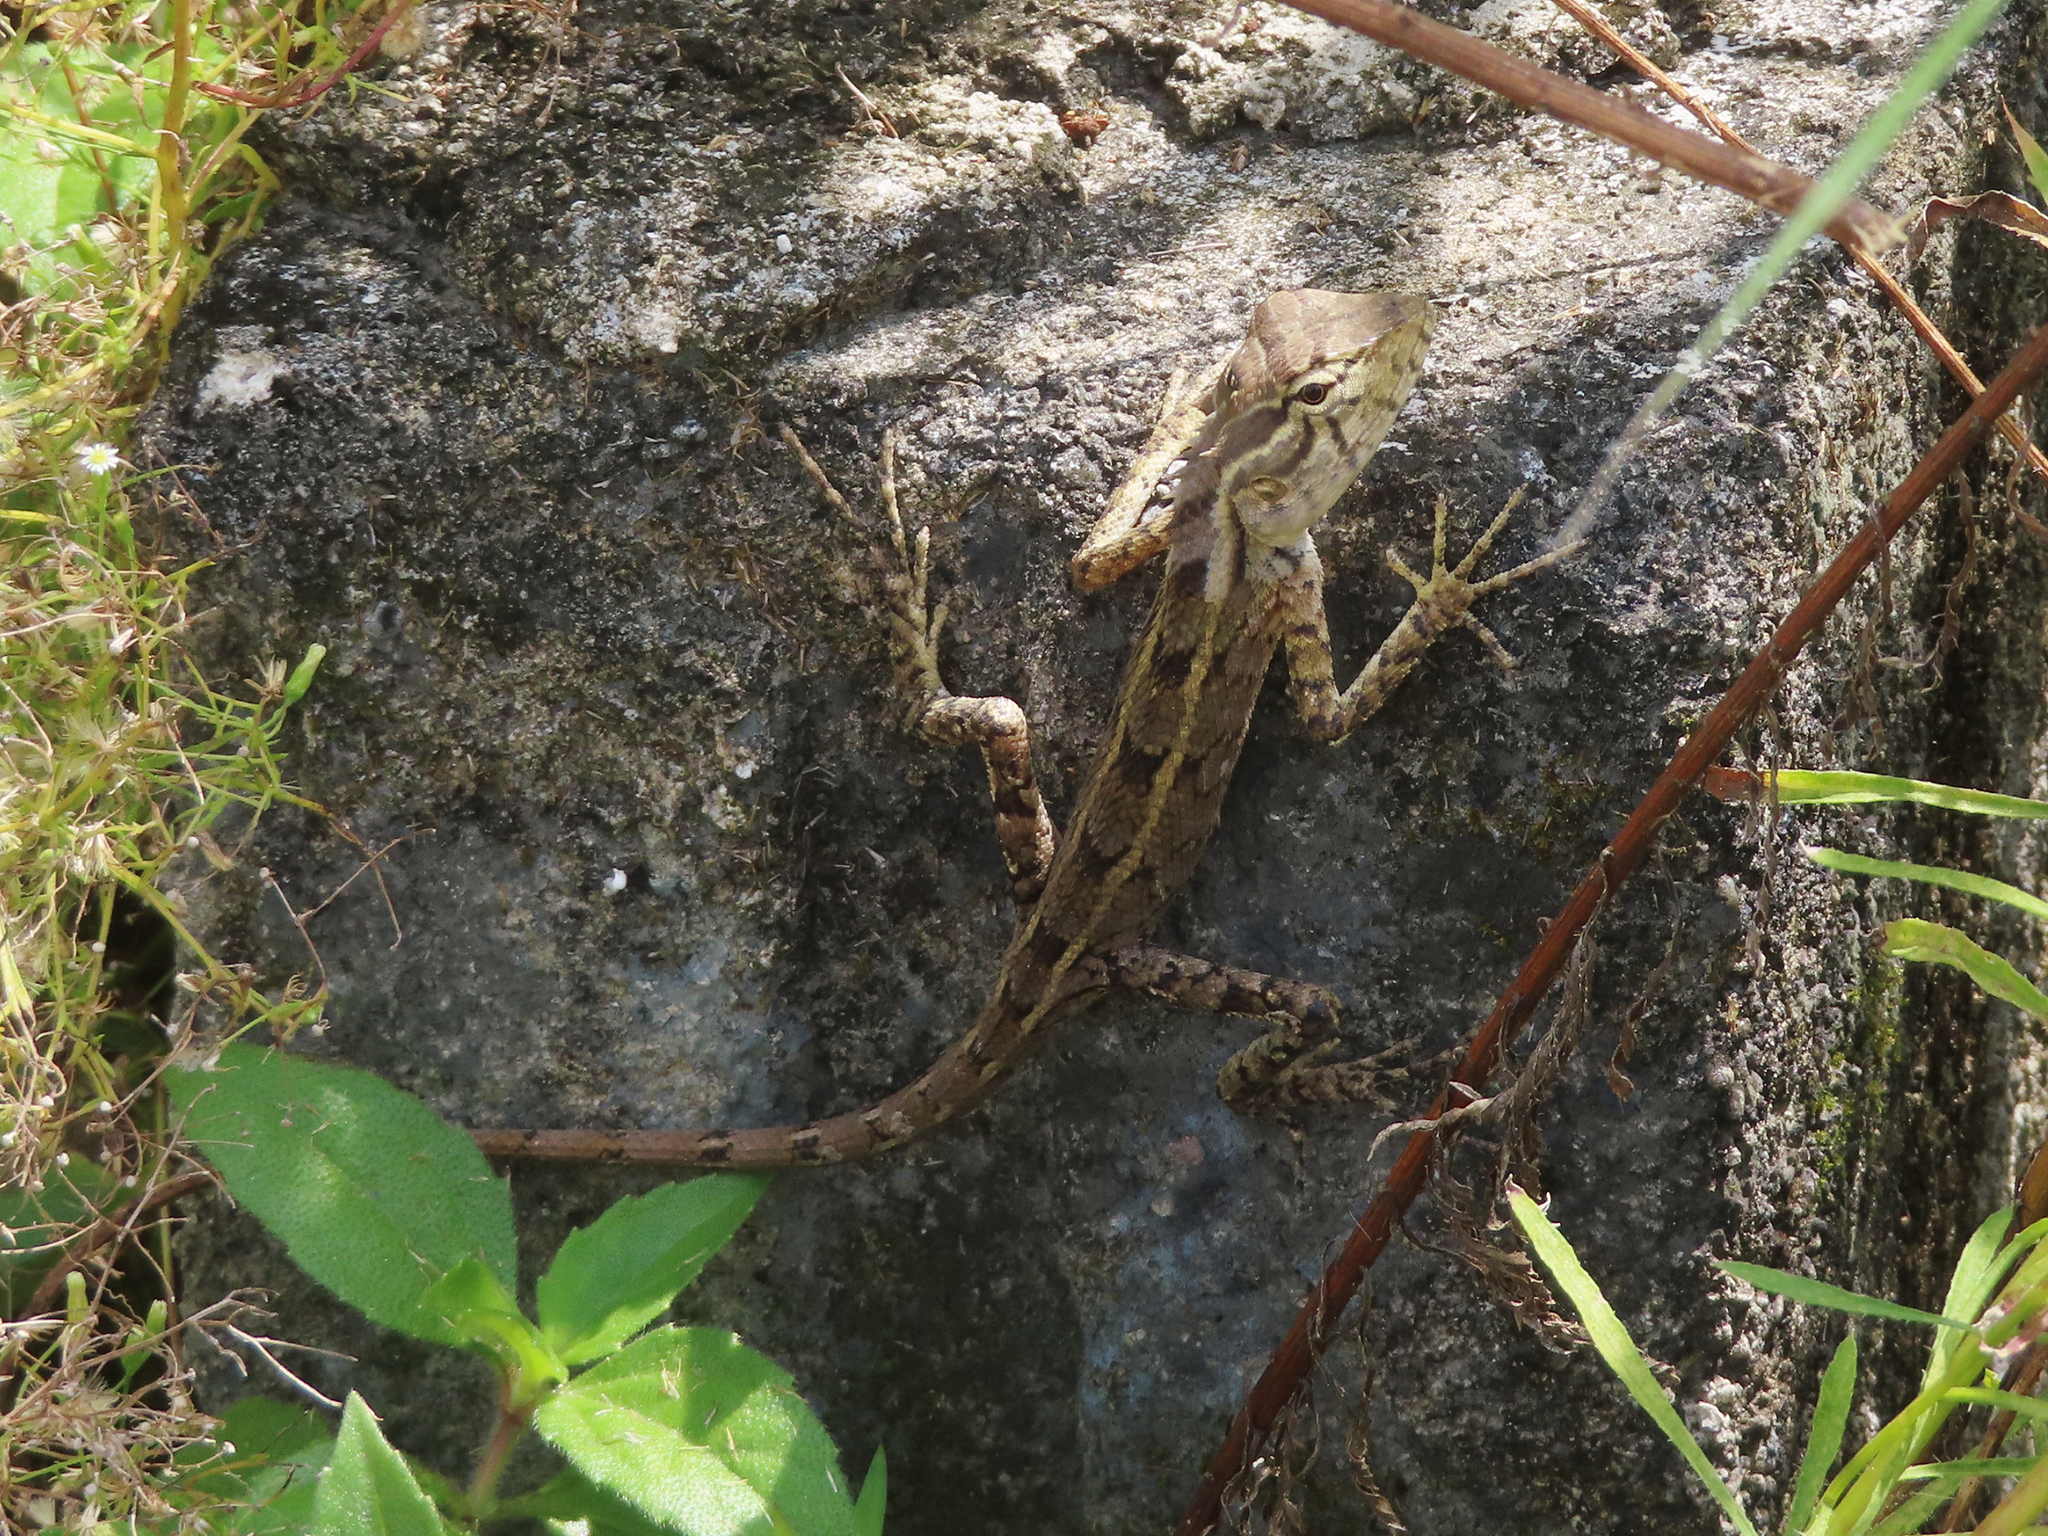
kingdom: Animalia
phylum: Chordata
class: Squamata
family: Agamidae
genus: Calotes
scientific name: Calotes versicolor
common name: Oriental garden lizard
